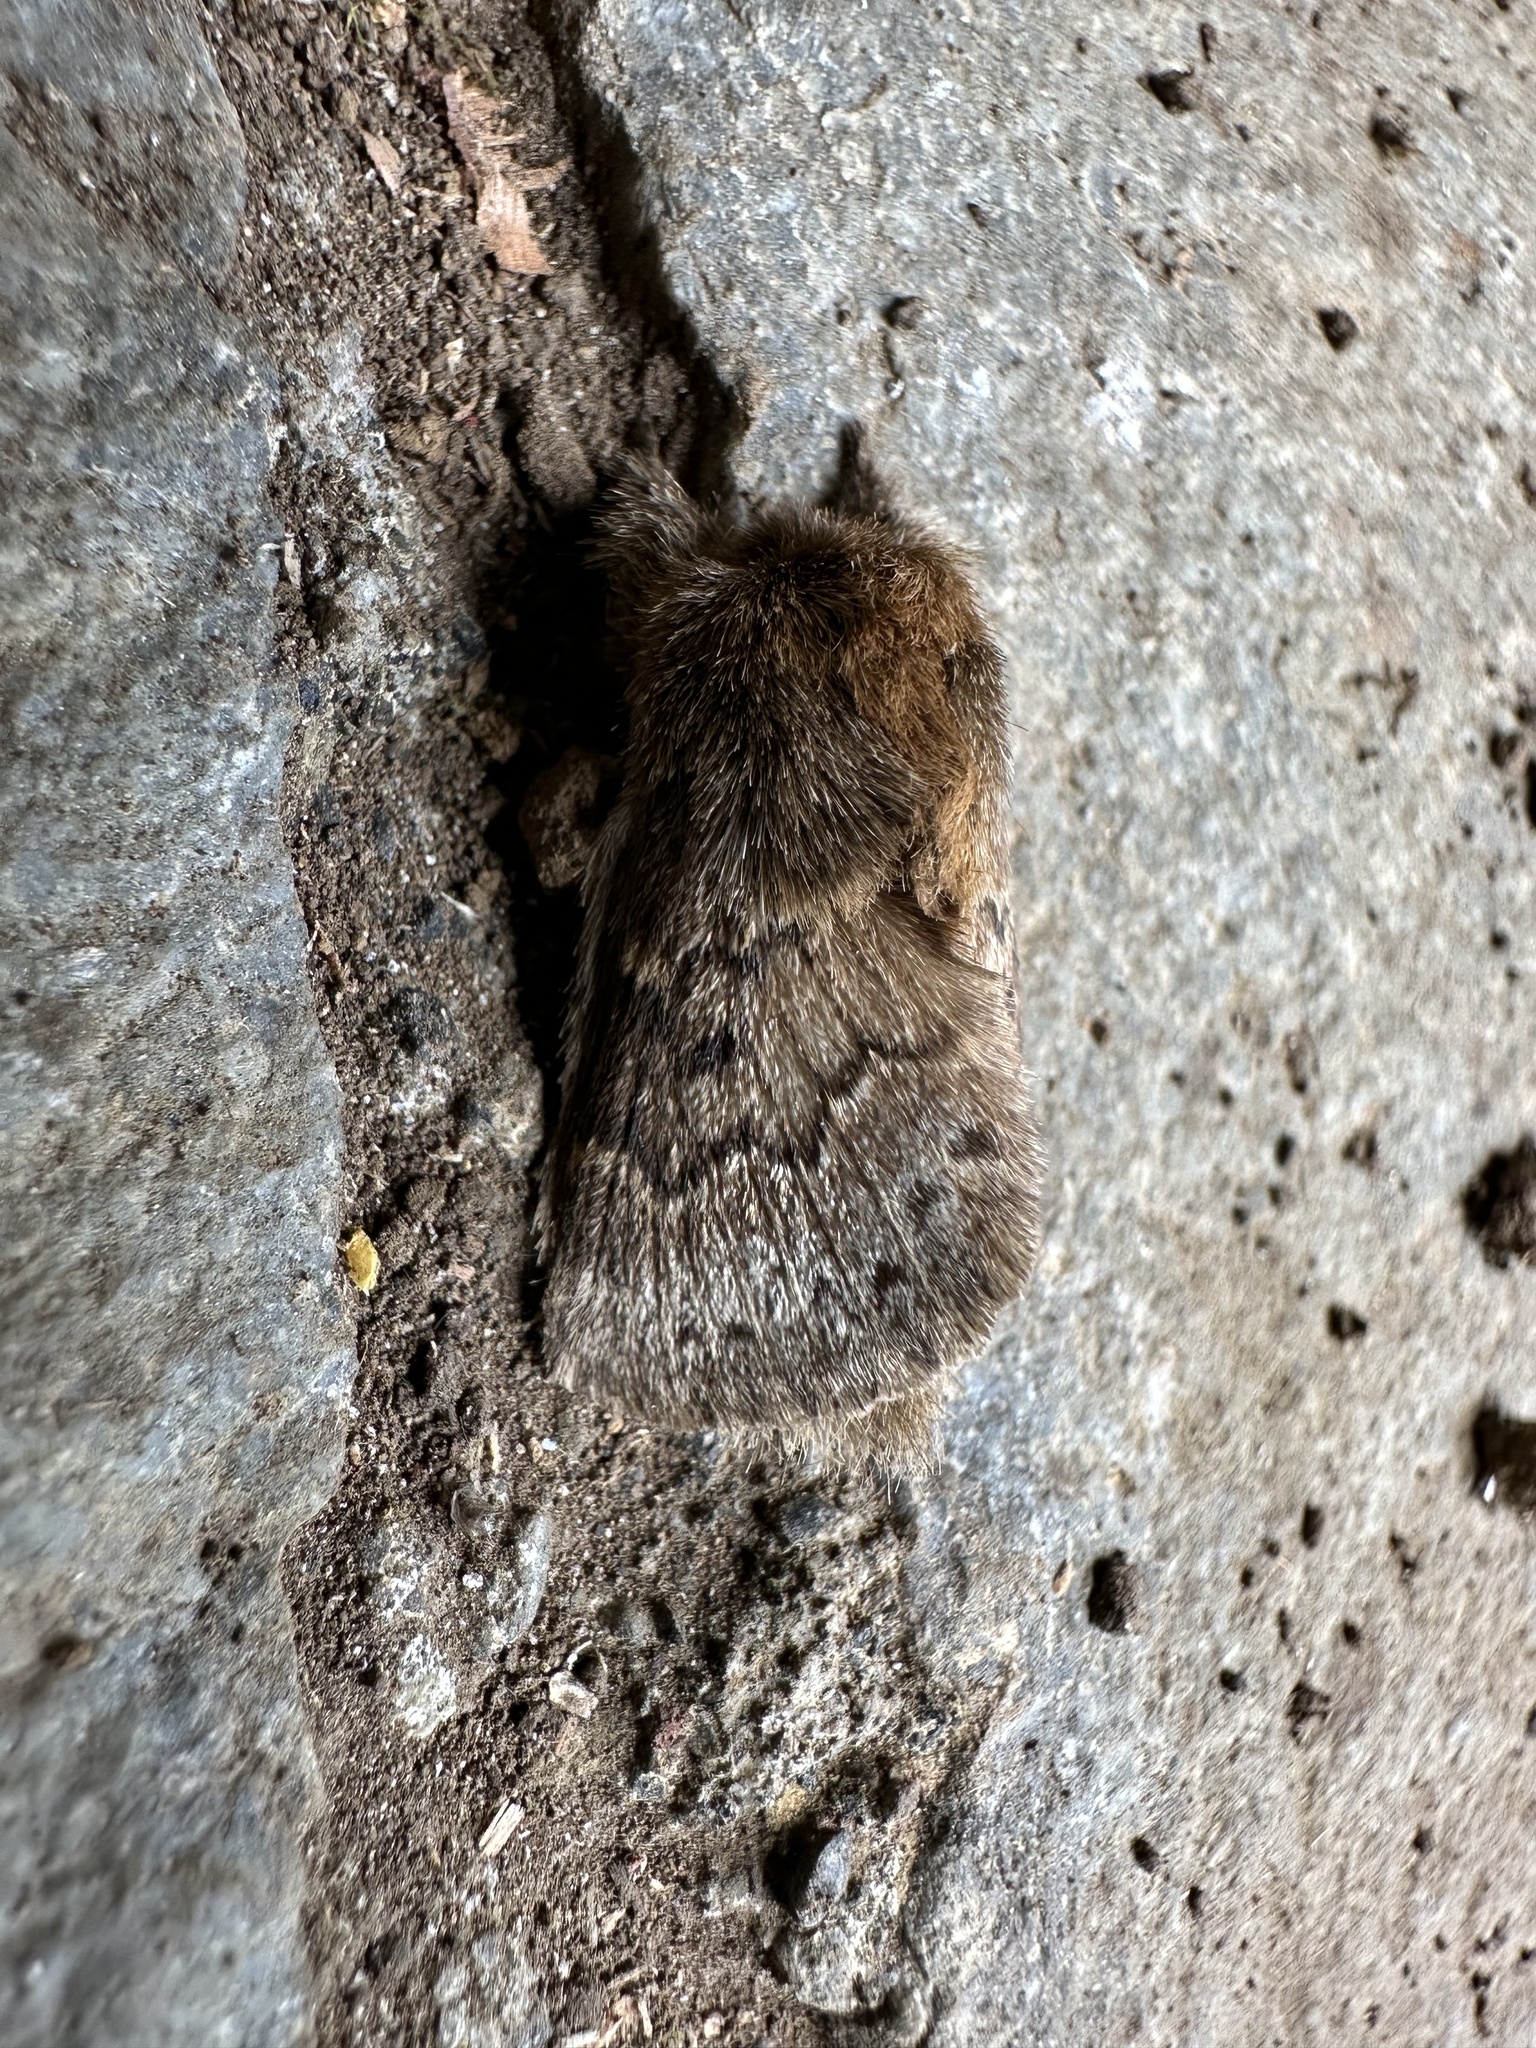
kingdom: Animalia
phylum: Arthropoda
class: Insecta
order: Lepidoptera
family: Lasiocampidae
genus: Macromphalia
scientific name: Macromphalia ancilla
